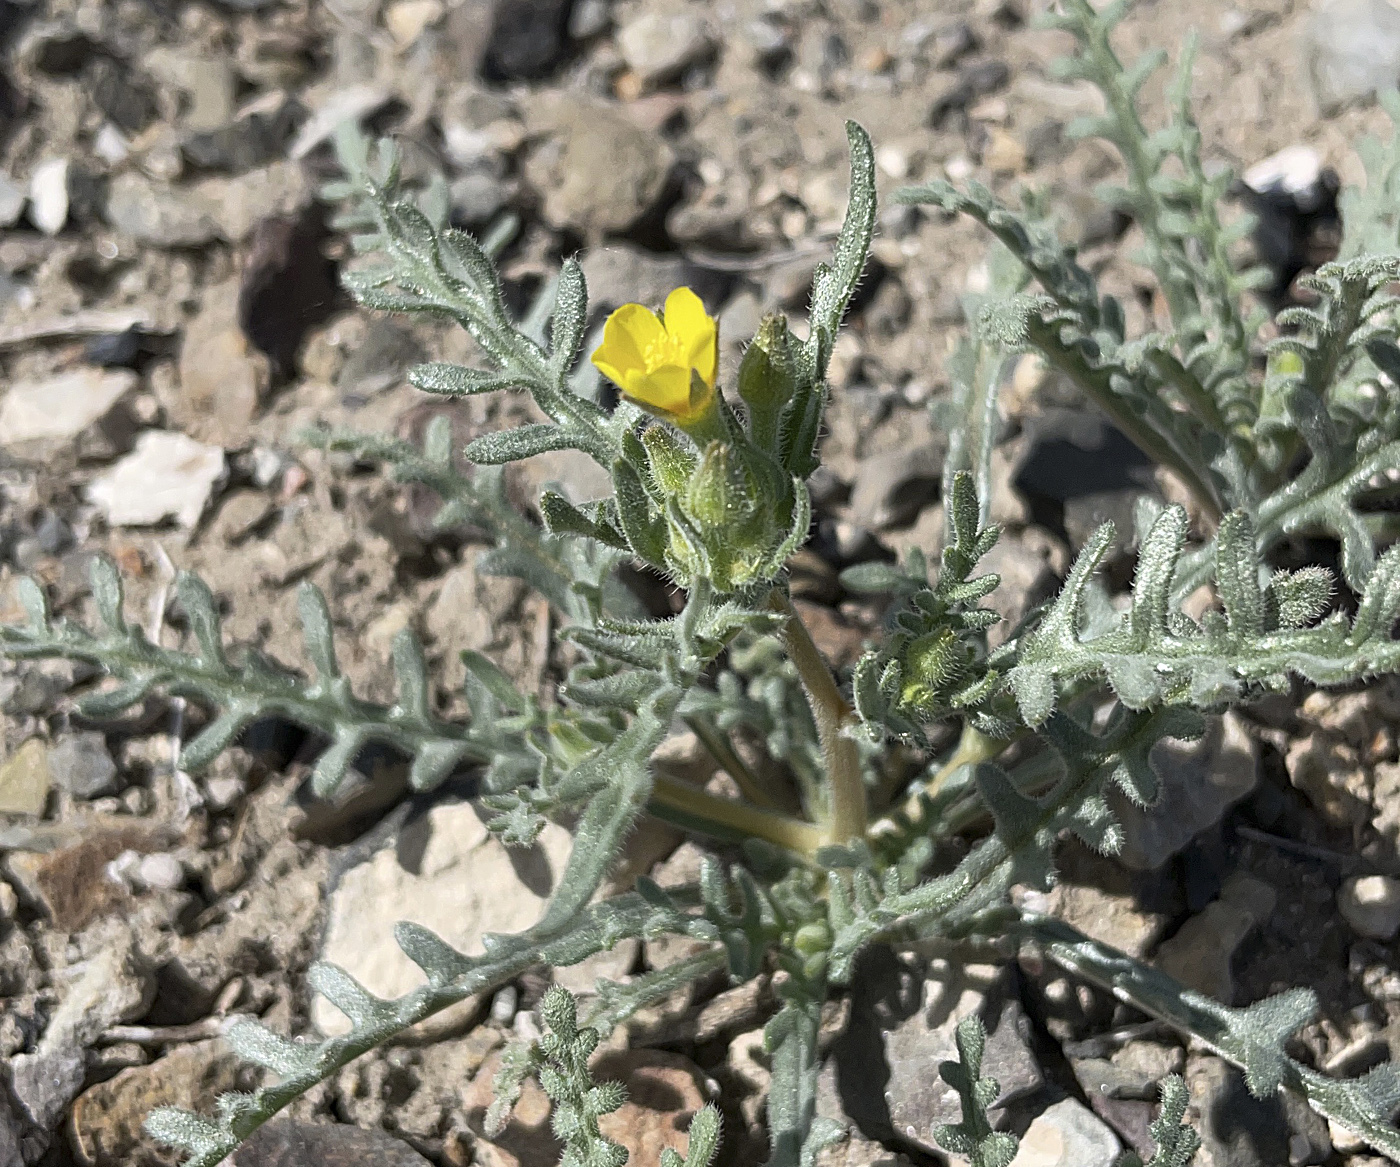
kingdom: Plantae
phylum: Tracheophyta
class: Magnoliopsida
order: Cornales
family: Loasaceae
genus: Mentzelia
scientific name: Mentzelia albicaulis
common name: White-stem blazingstar
